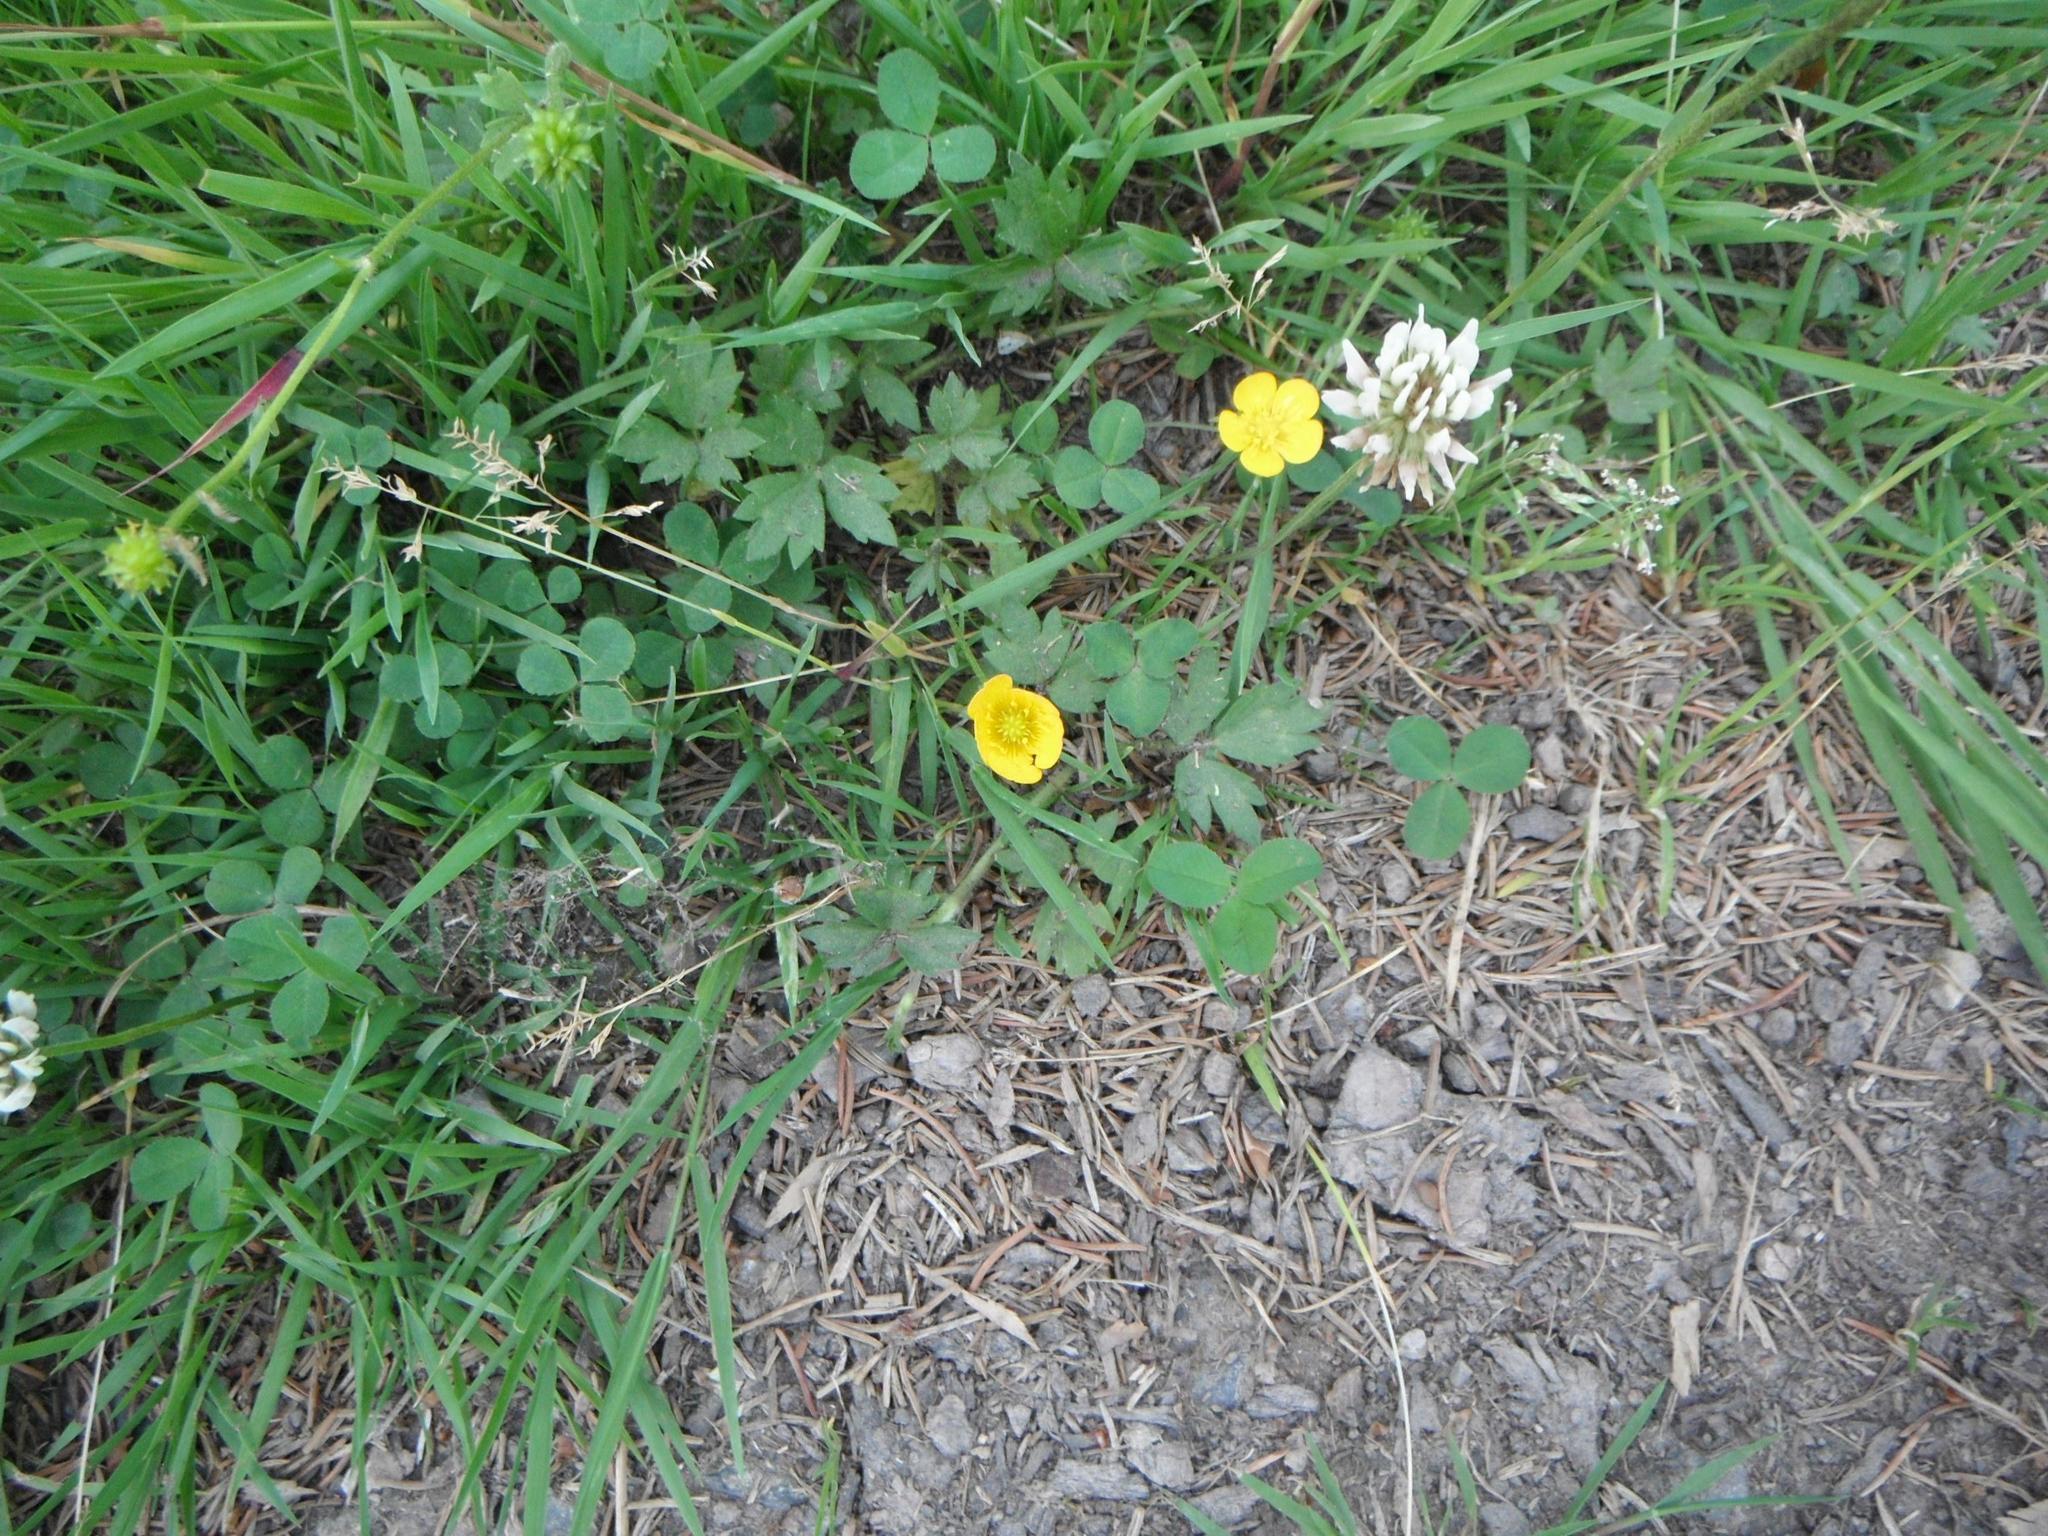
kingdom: Plantae
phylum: Tracheophyta
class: Magnoliopsida
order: Ranunculales
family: Ranunculaceae
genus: Ranunculus
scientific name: Ranunculus repens
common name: Creeping buttercup
